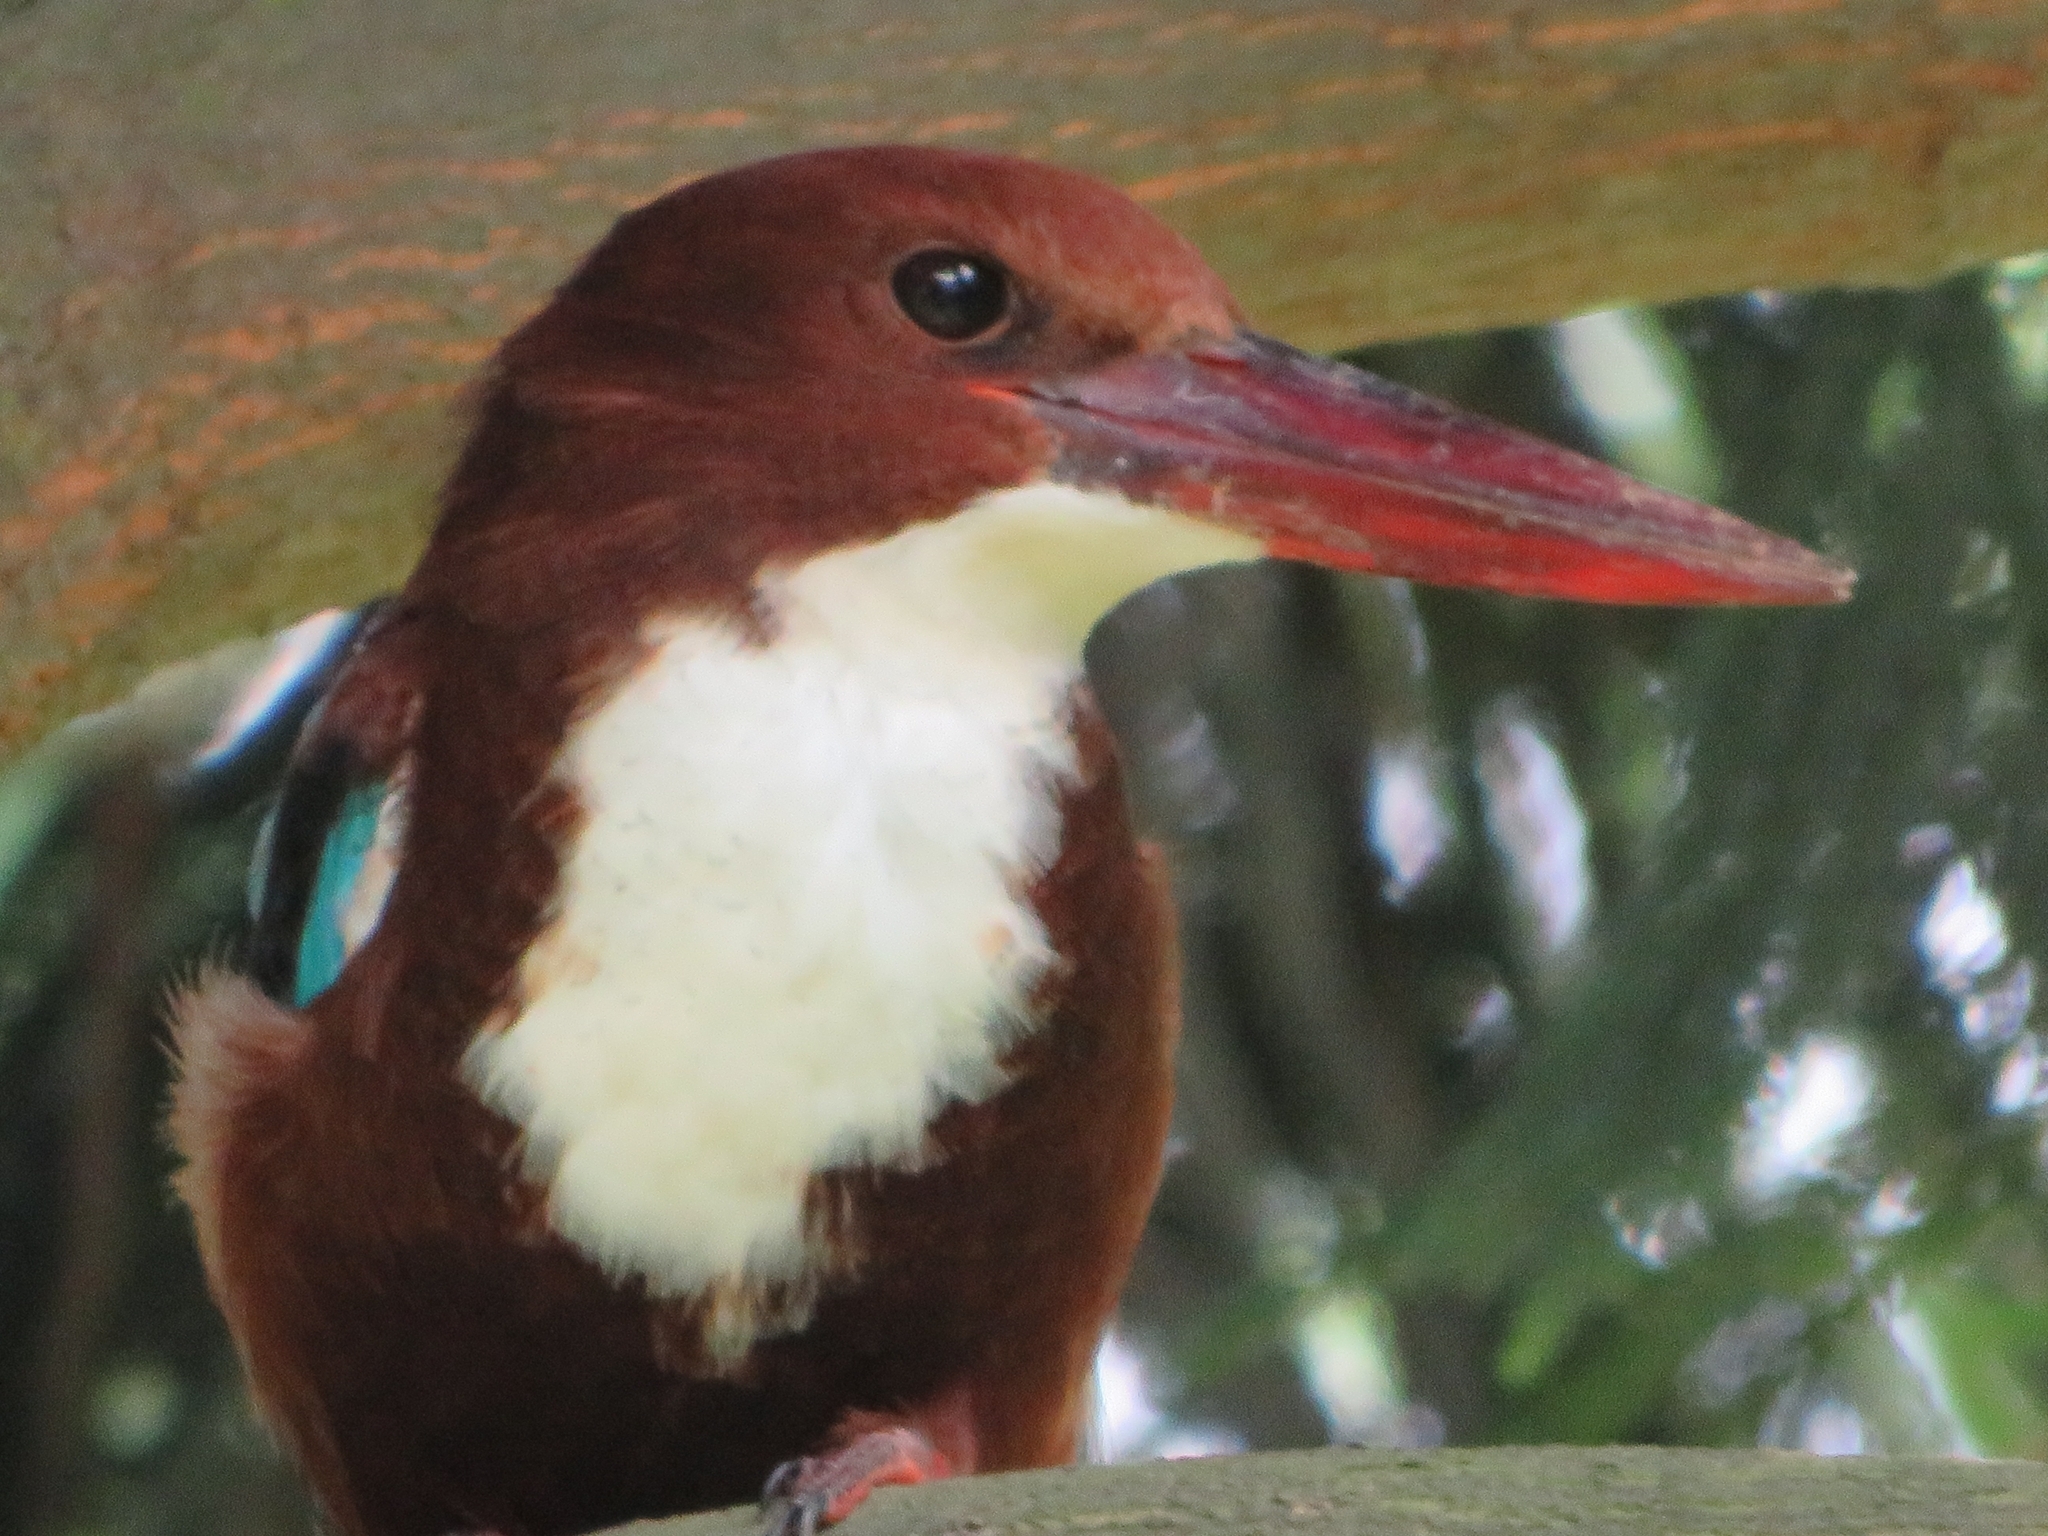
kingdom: Animalia
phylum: Chordata
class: Aves
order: Coraciiformes
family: Alcedinidae
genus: Halcyon
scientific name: Halcyon smyrnensis
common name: White-throated kingfisher
